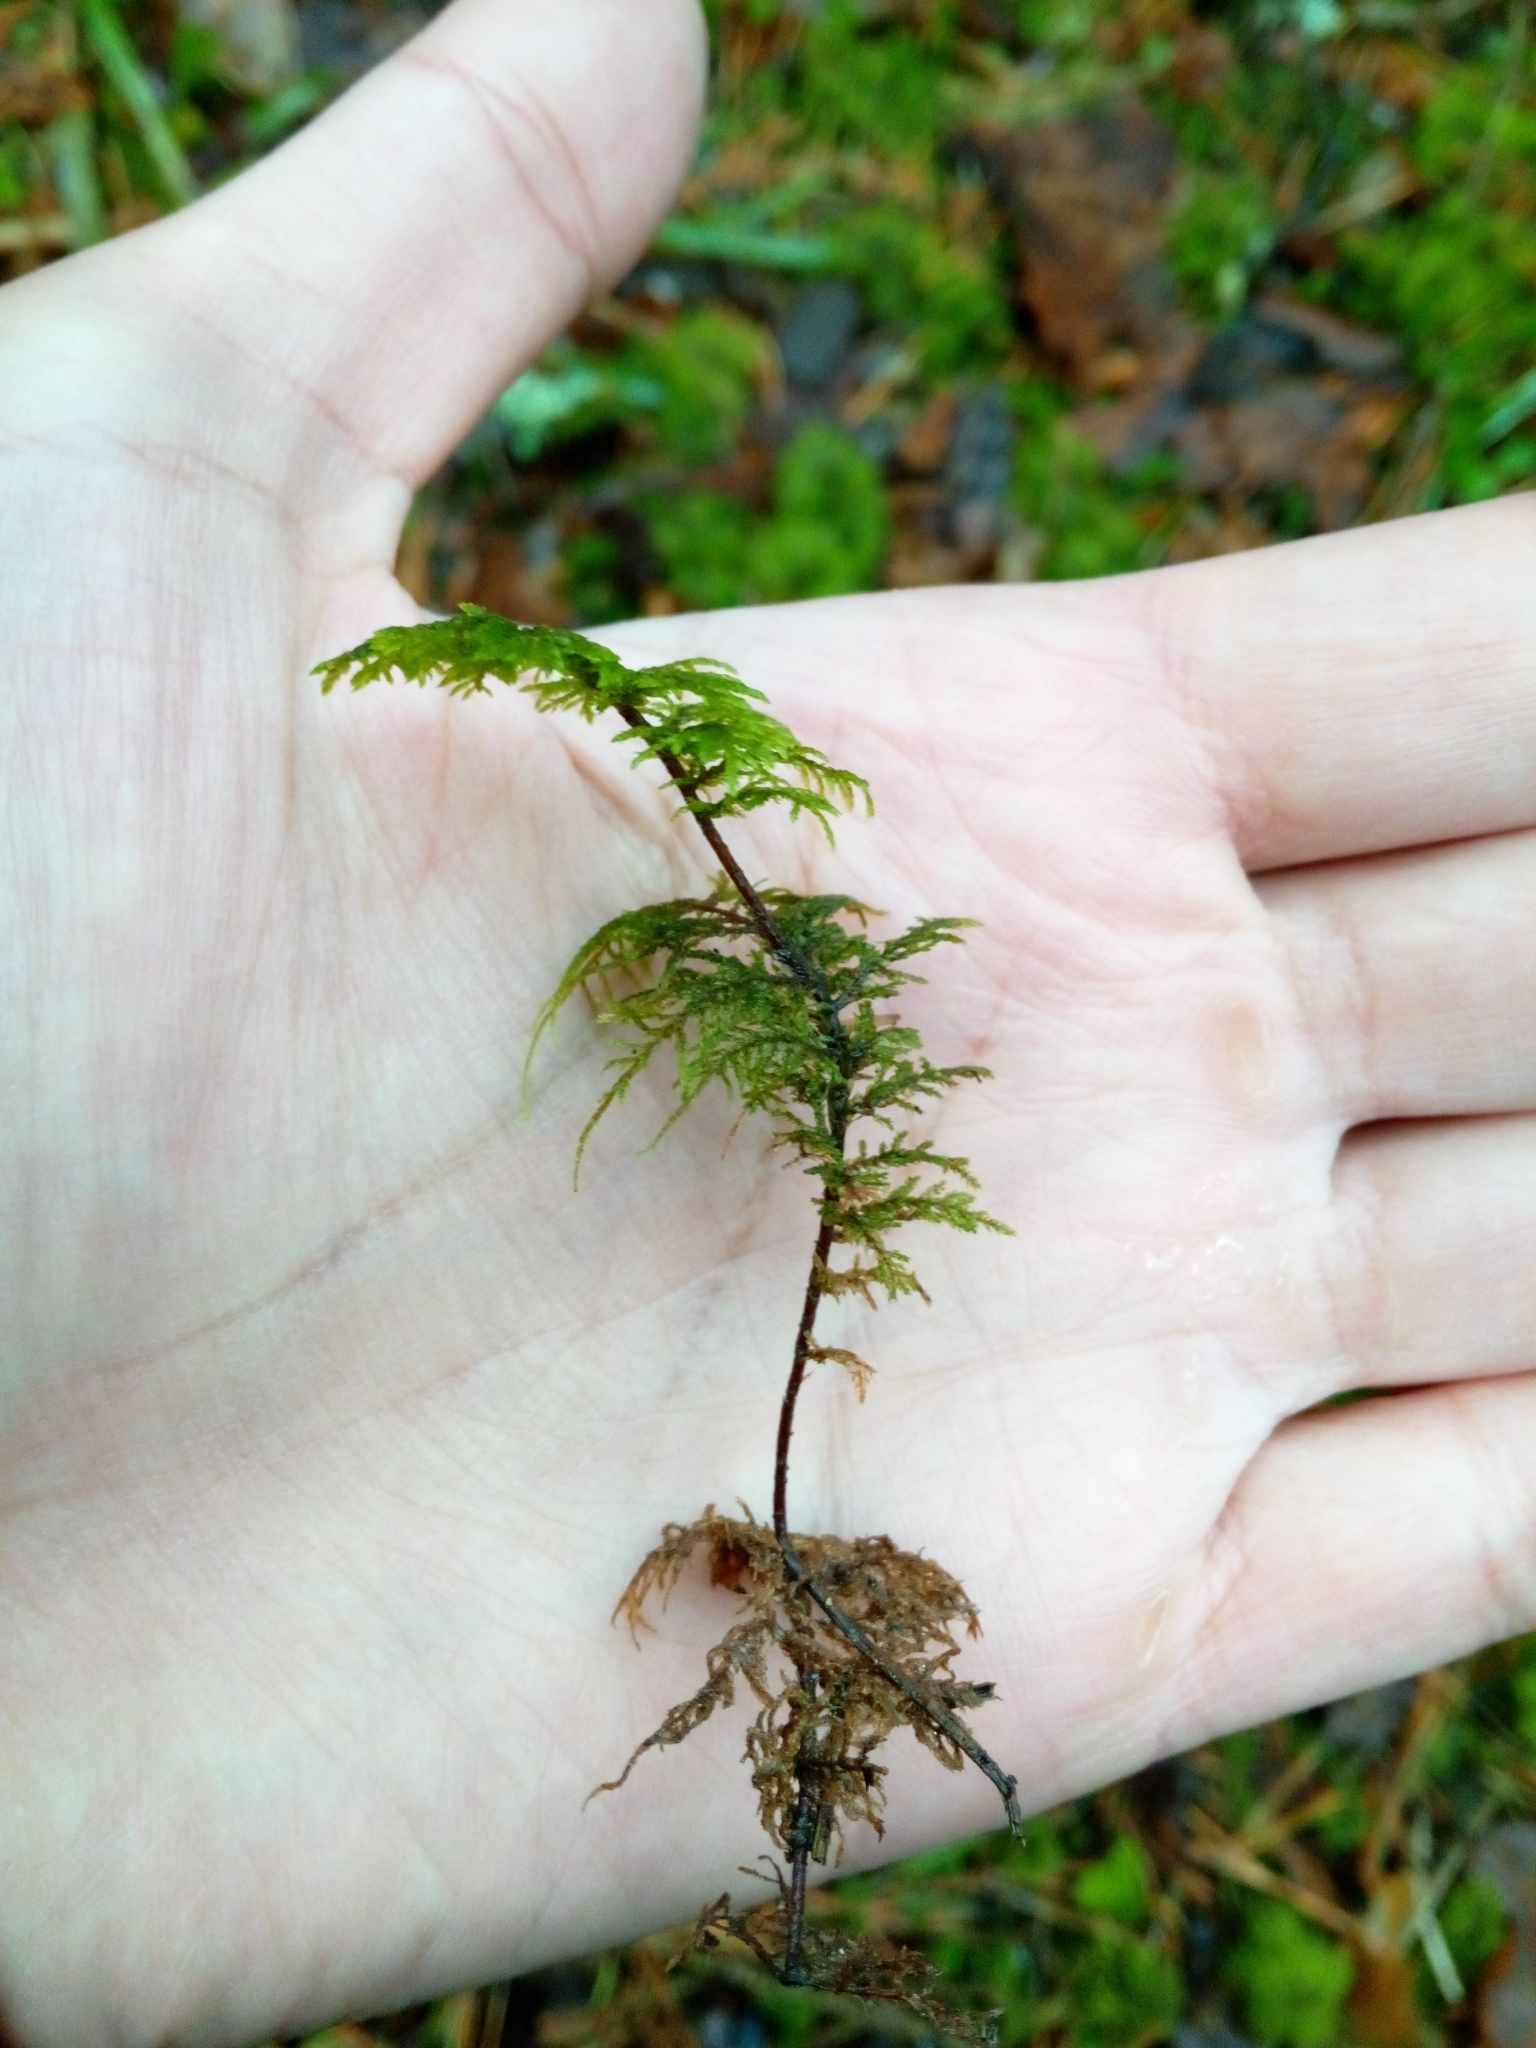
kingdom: Plantae
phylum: Bryophyta
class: Bryopsida
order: Hypnales
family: Hylocomiaceae
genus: Hylocomium
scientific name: Hylocomium splendens
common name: Stairstep moss
